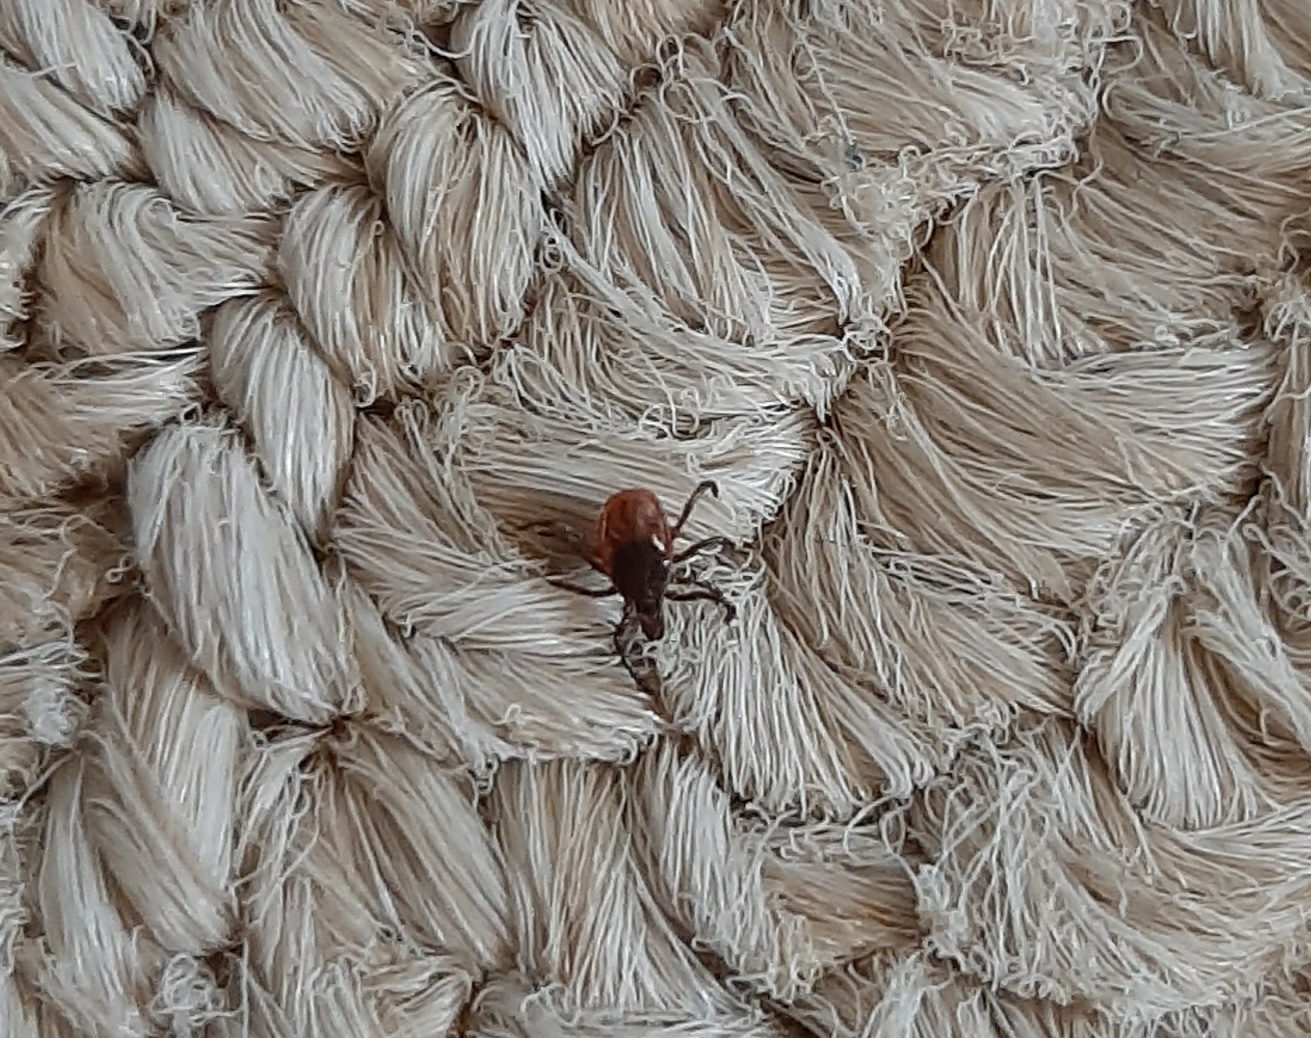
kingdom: Animalia
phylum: Arthropoda
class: Arachnida
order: Ixodida
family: Ixodidae
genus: Ixodes
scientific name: Ixodes scapularis
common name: Black legged tick
